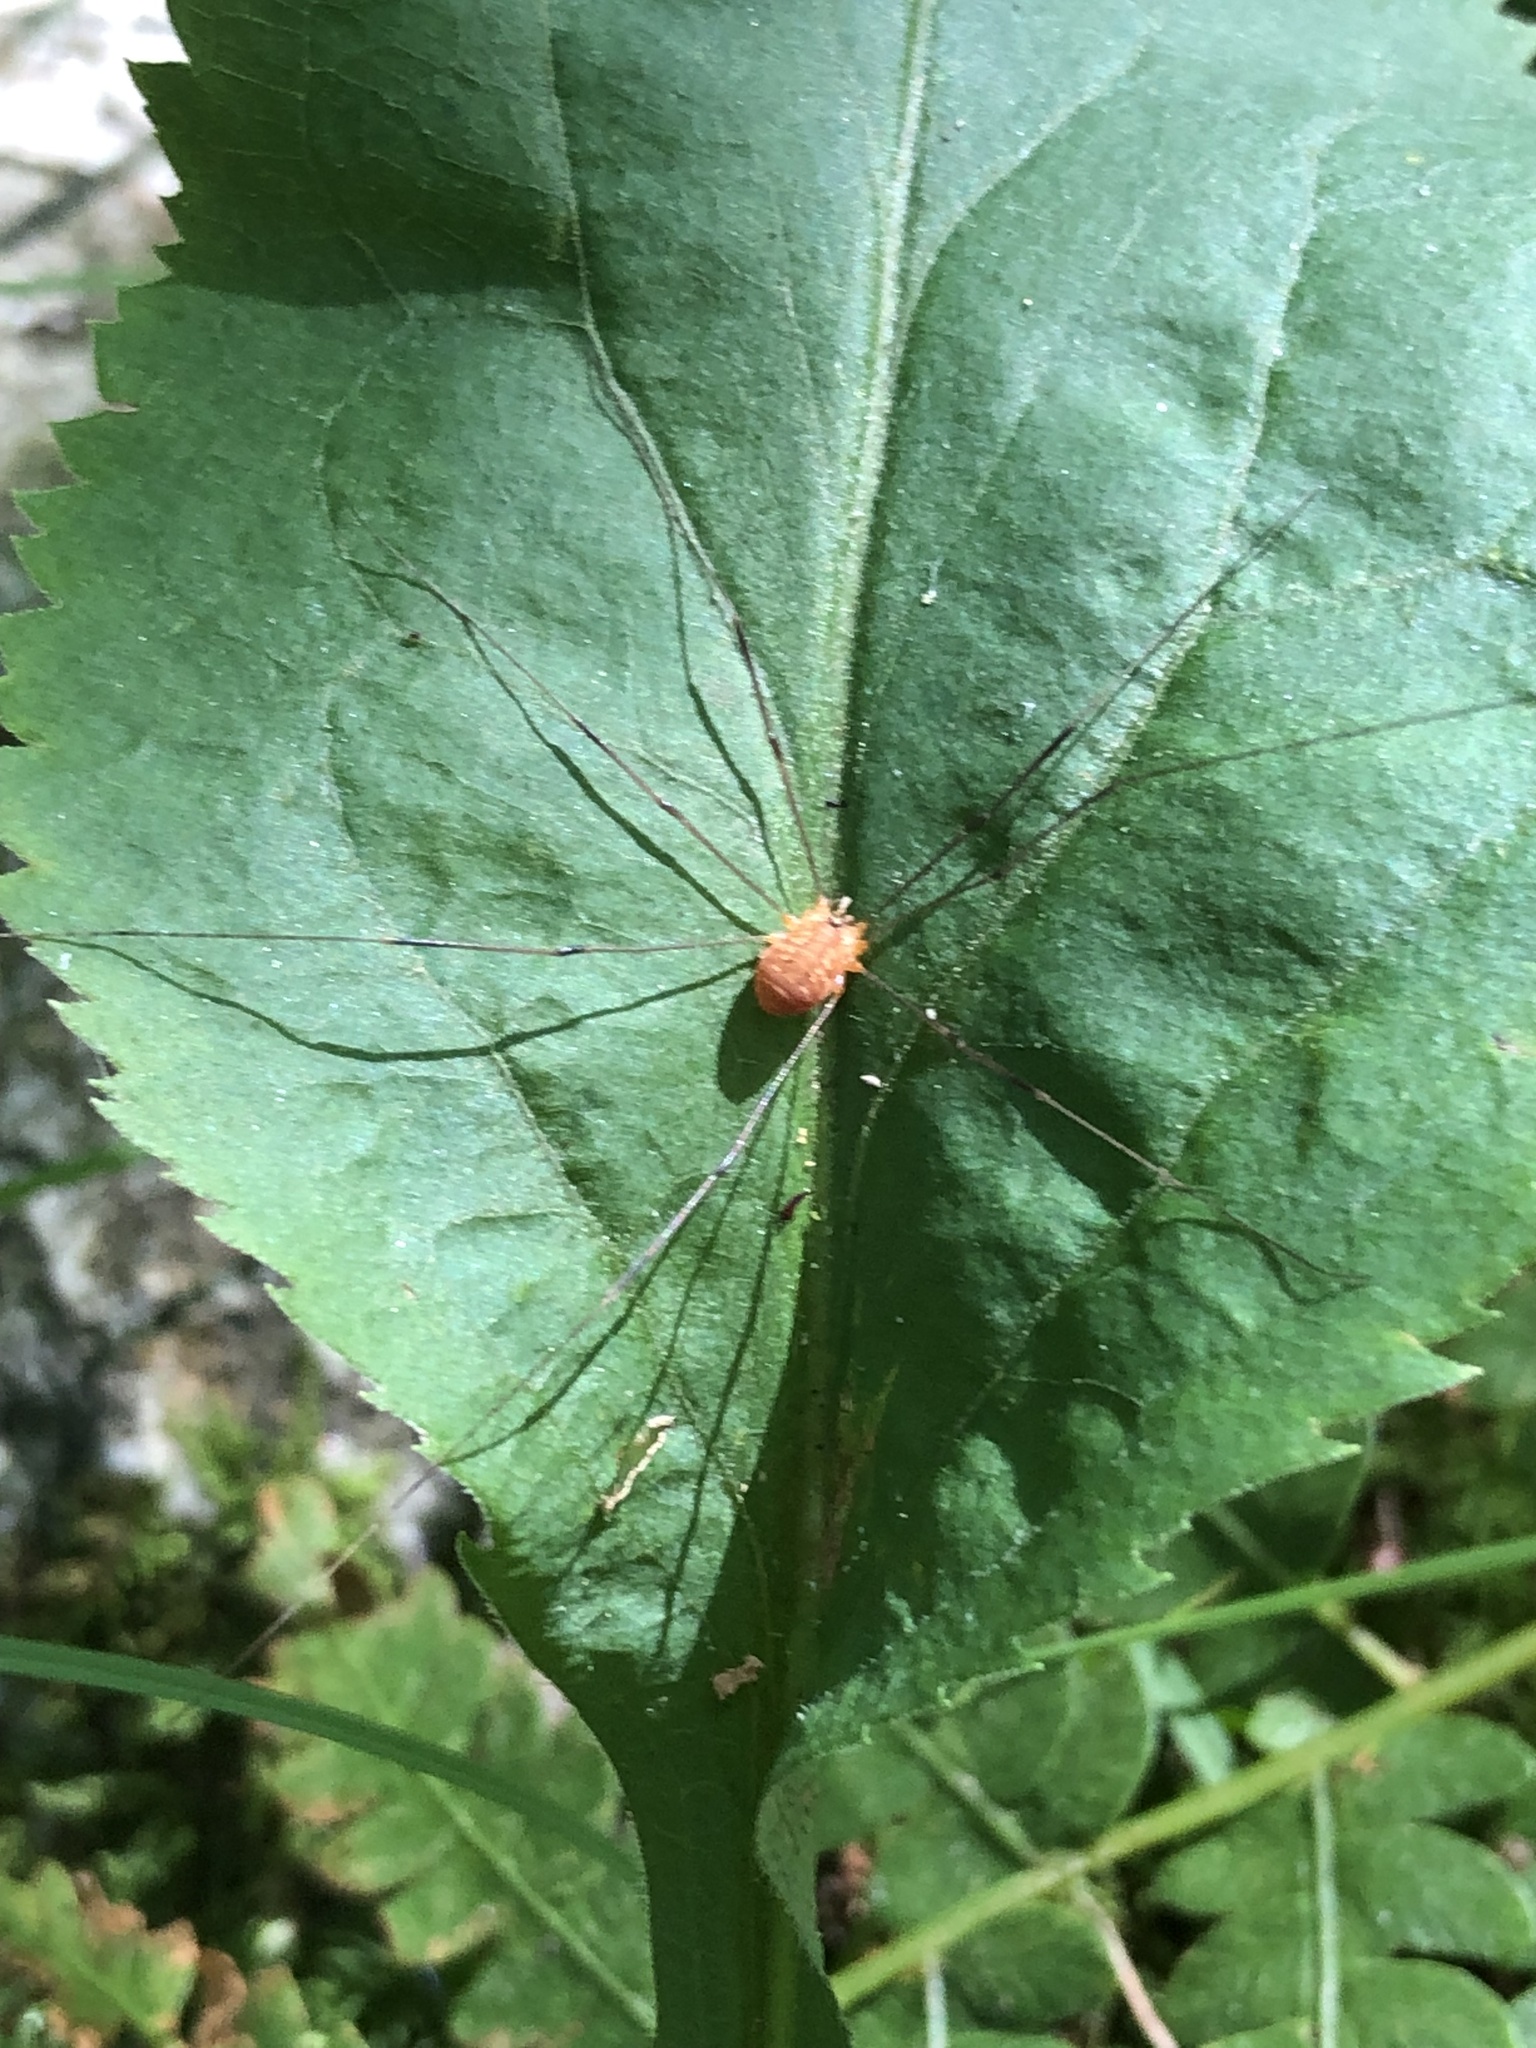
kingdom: Animalia
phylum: Arthropoda
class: Arachnida
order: Opiliones
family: Sclerosomatidae
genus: Leiobunum
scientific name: Leiobunum bracchiolum
